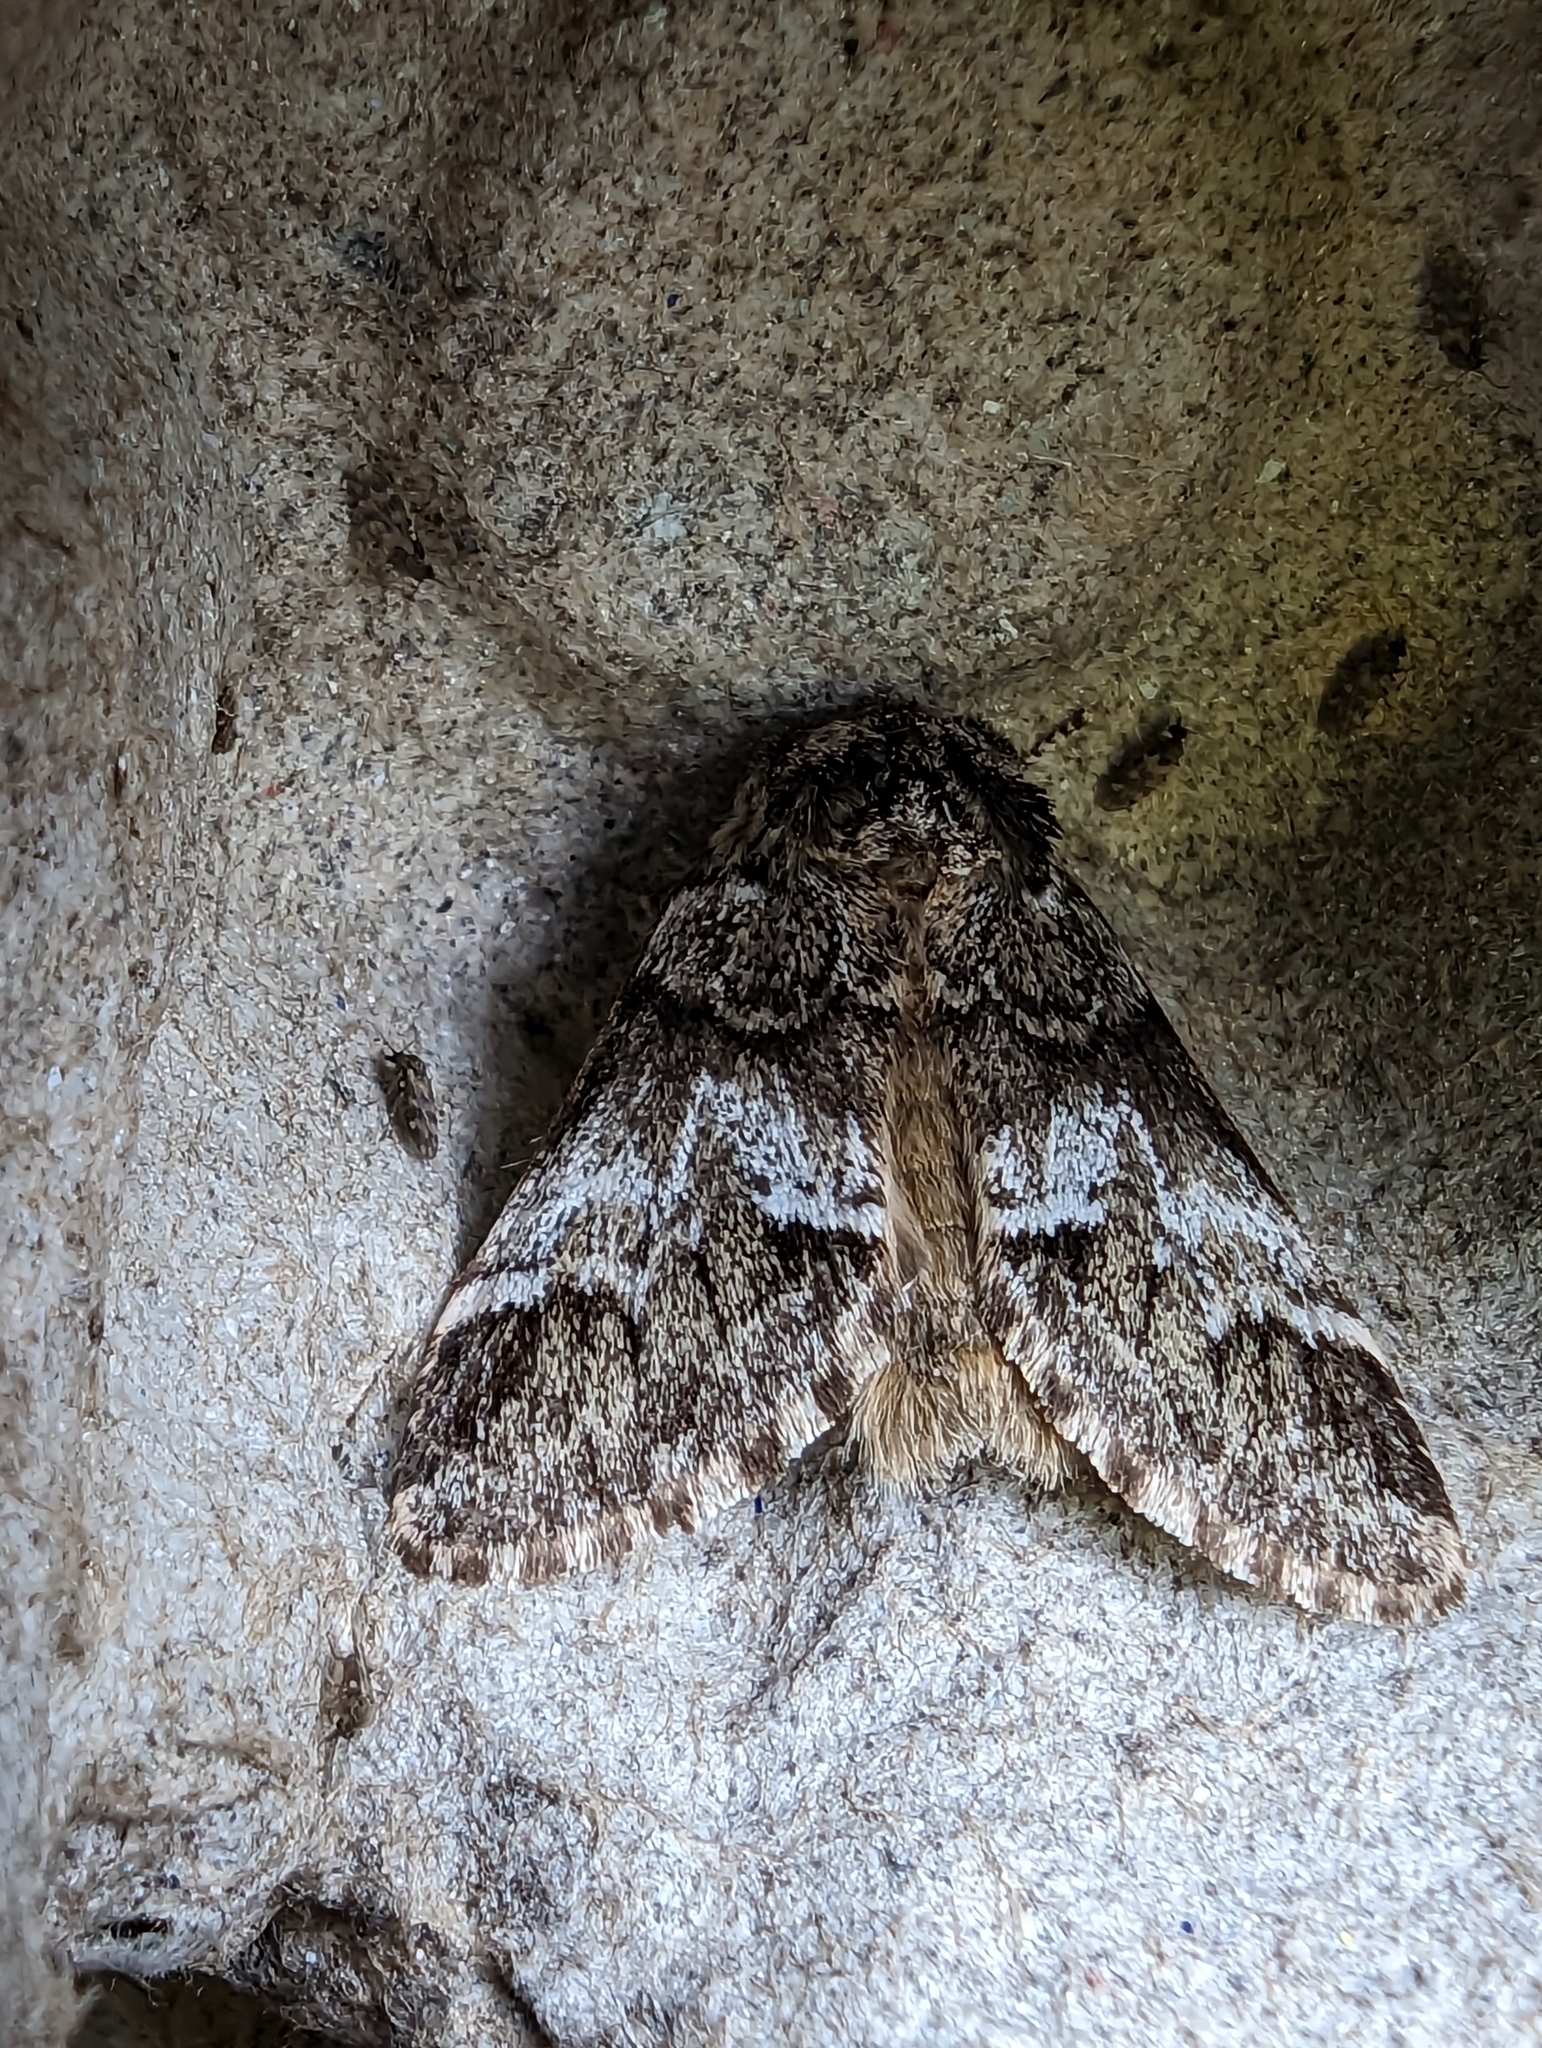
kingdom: Animalia
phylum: Arthropoda
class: Insecta
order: Lepidoptera
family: Notodontidae
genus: Drymonia
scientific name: Drymonia dodonaea
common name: Marbled brown
